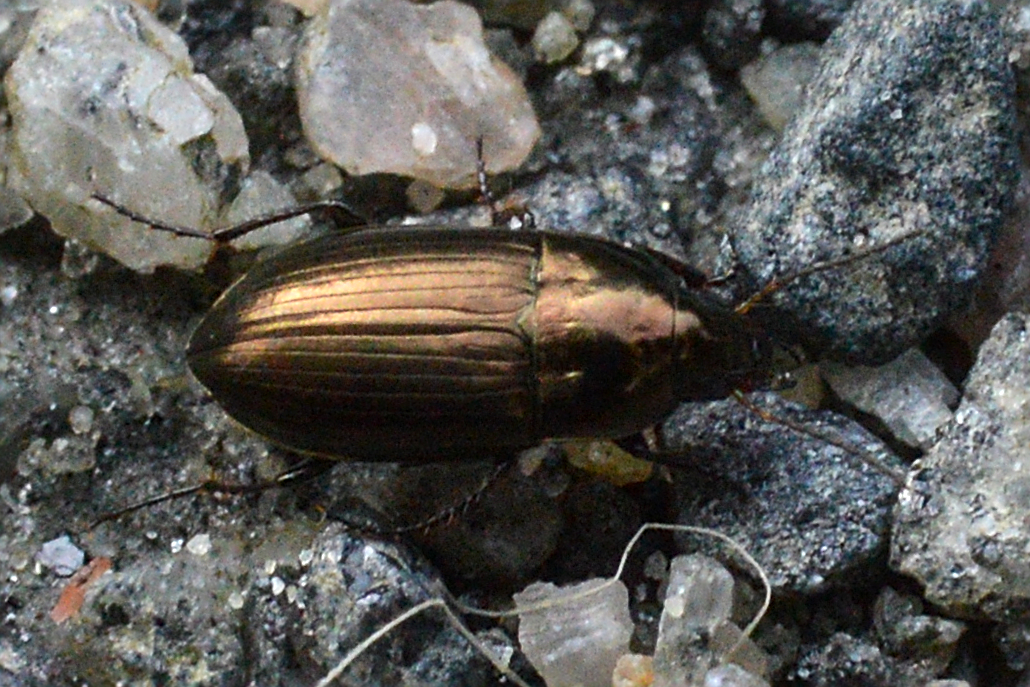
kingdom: Animalia
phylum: Arthropoda
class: Insecta
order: Coleoptera
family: Carabidae
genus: Amara
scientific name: Amara aenea
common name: Common sun beetle
